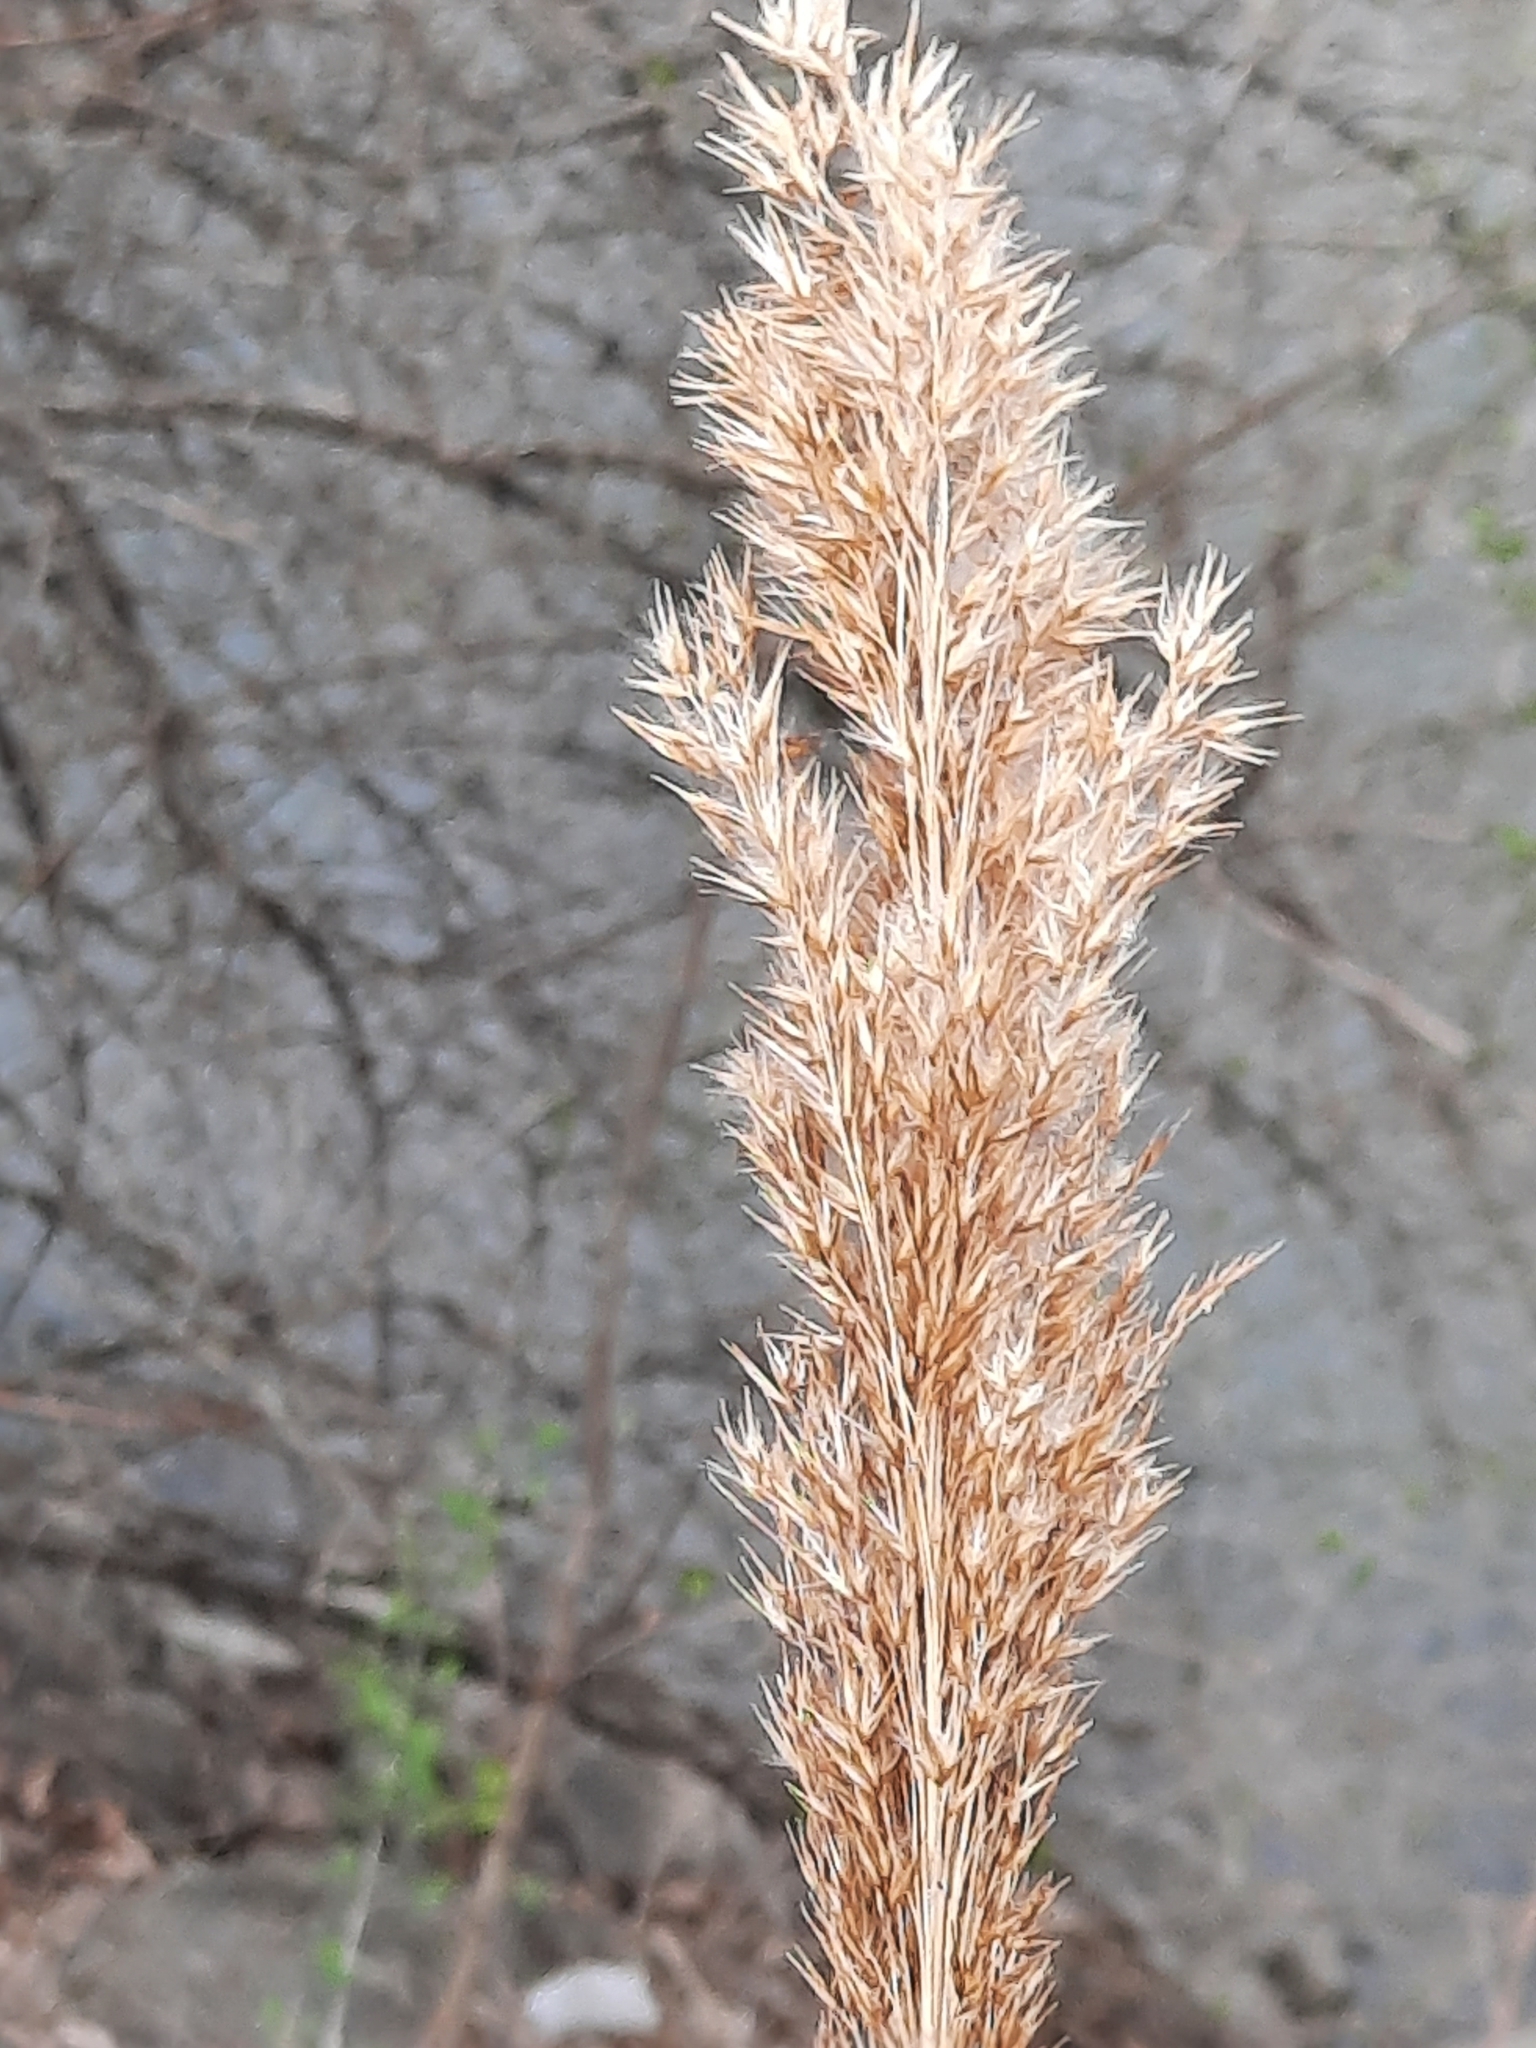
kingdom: Plantae
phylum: Tracheophyta
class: Liliopsida
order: Poales
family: Poaceae
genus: Phragmites
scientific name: Phragmites australis
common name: Common reed
